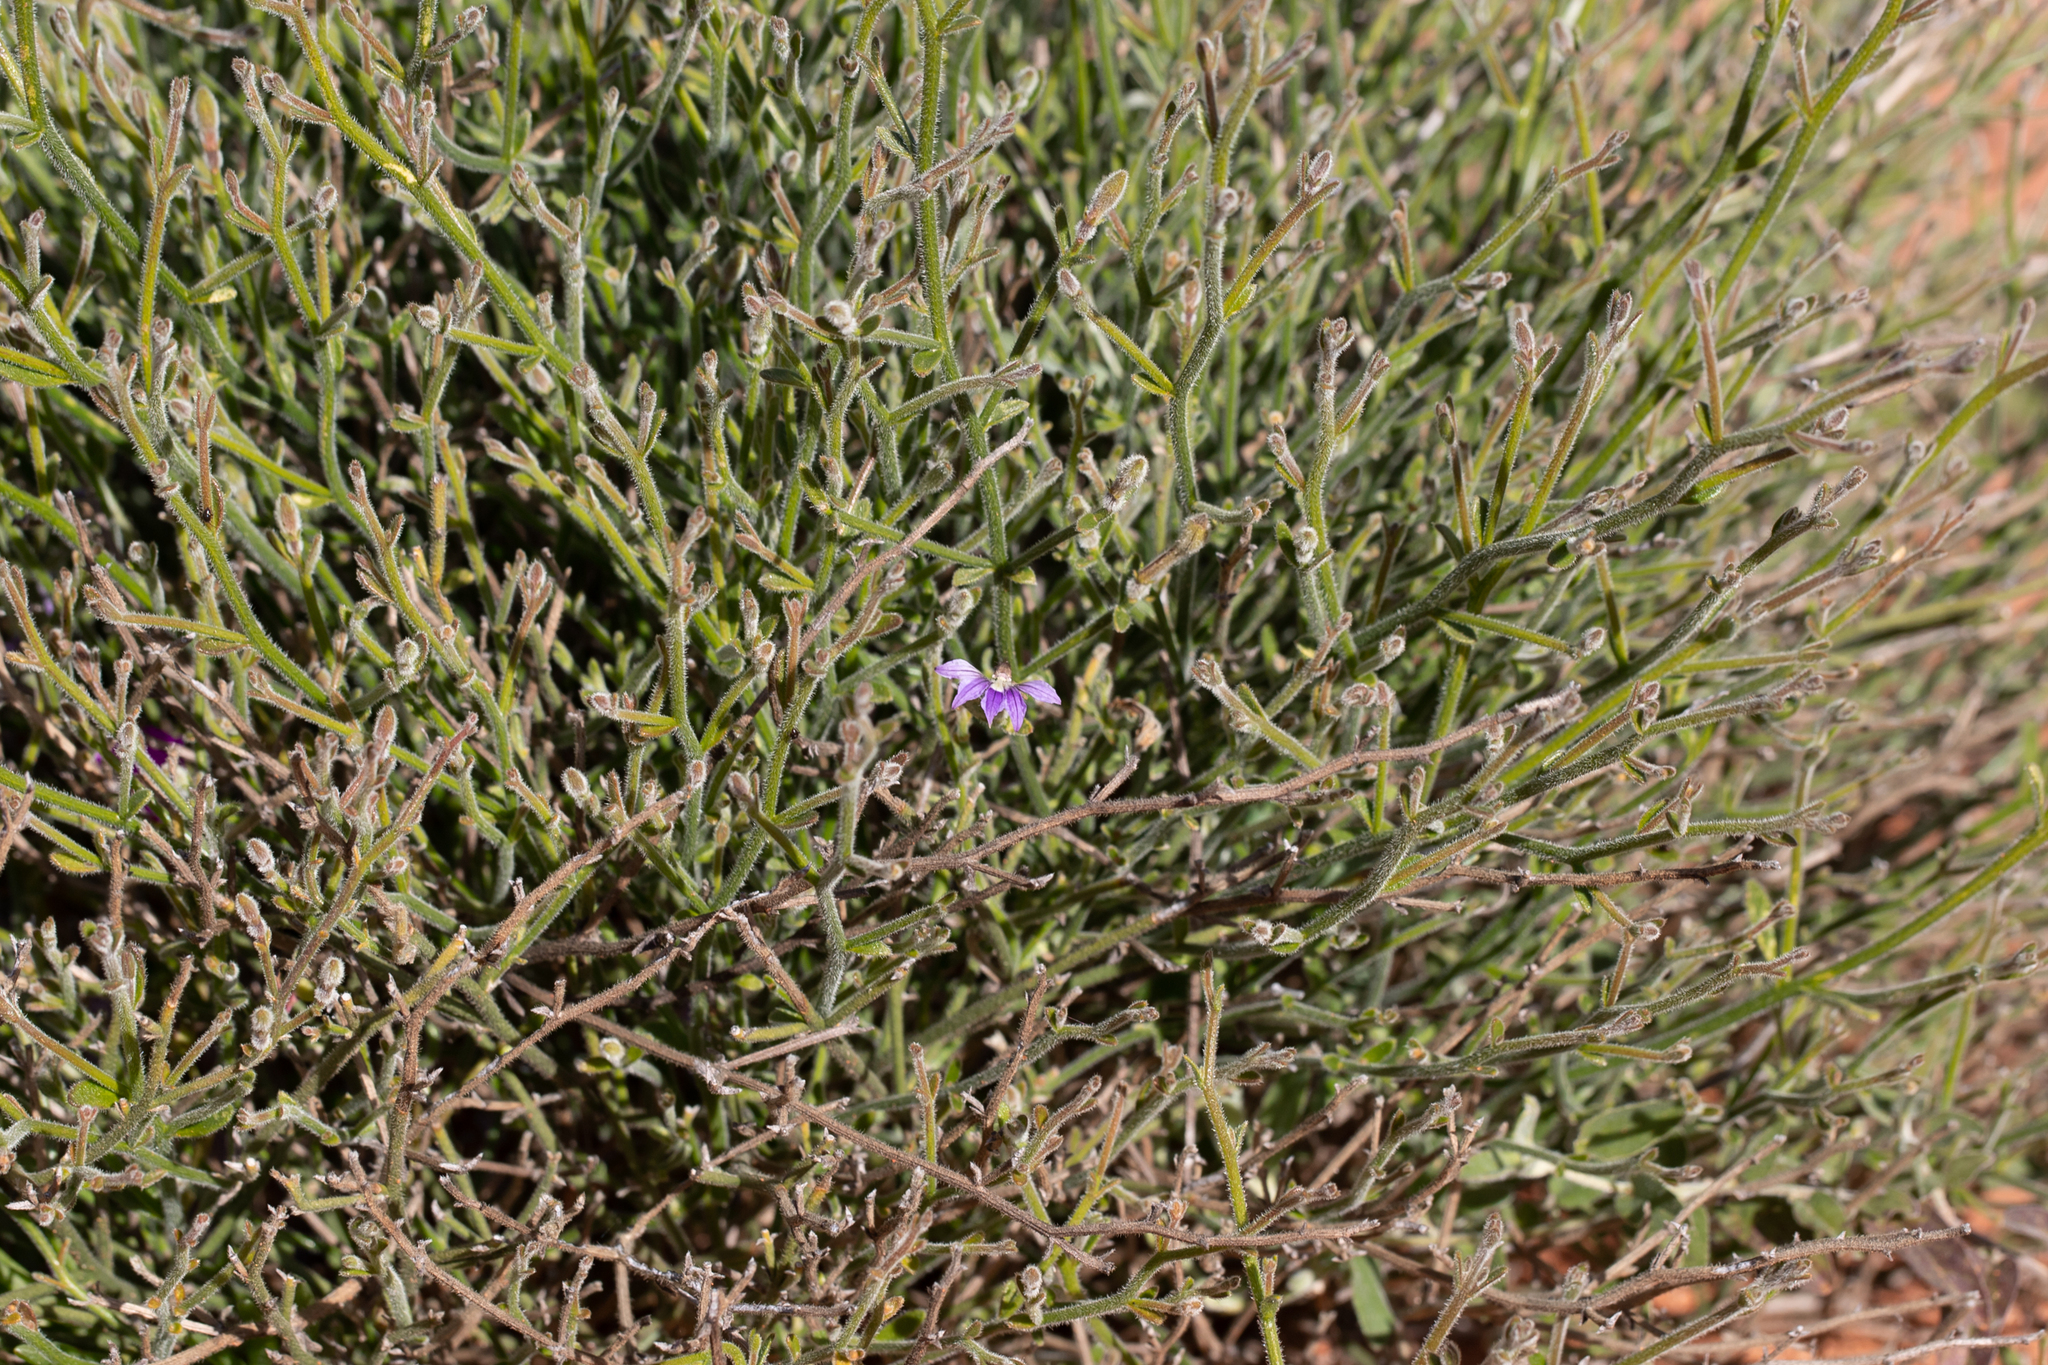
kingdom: Plantae
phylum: Tracheophyta
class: Magnoliopsida
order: Asterales
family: Goodeniaceae
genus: Scaevola
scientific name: Scaevola depauperata
